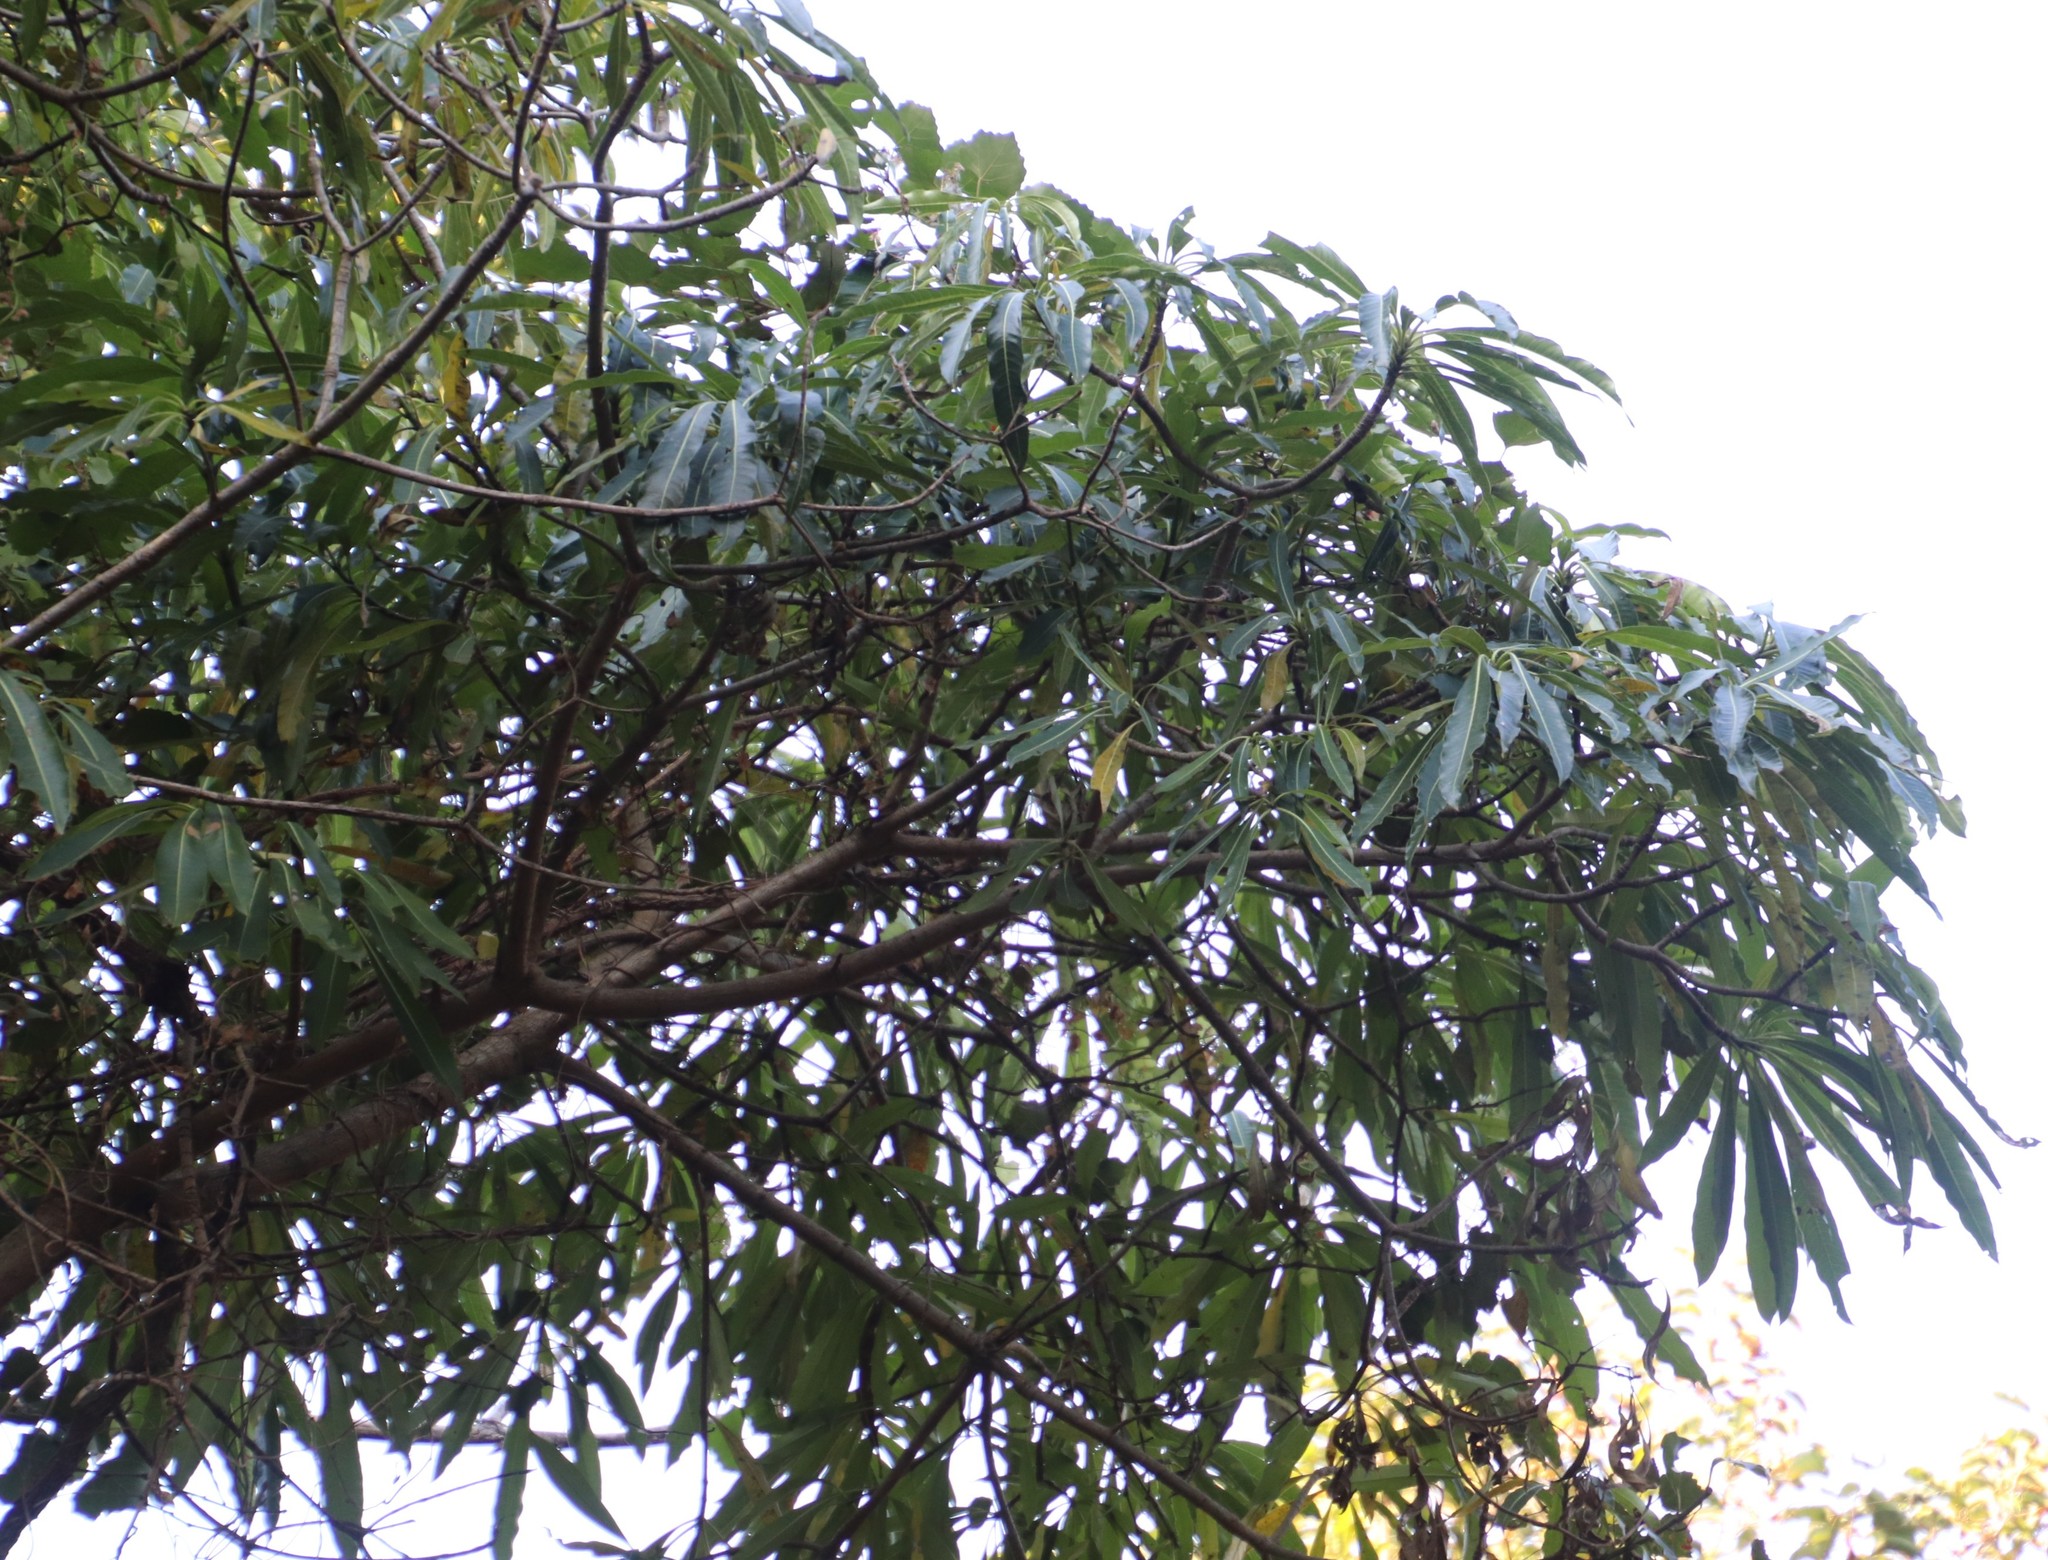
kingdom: Plantae
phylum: Tracheophyta
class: Magnoliopsida
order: Gentianales
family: Apocynaceae
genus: Rauvolfia
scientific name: Rauvolfia caffra
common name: Quininetree
